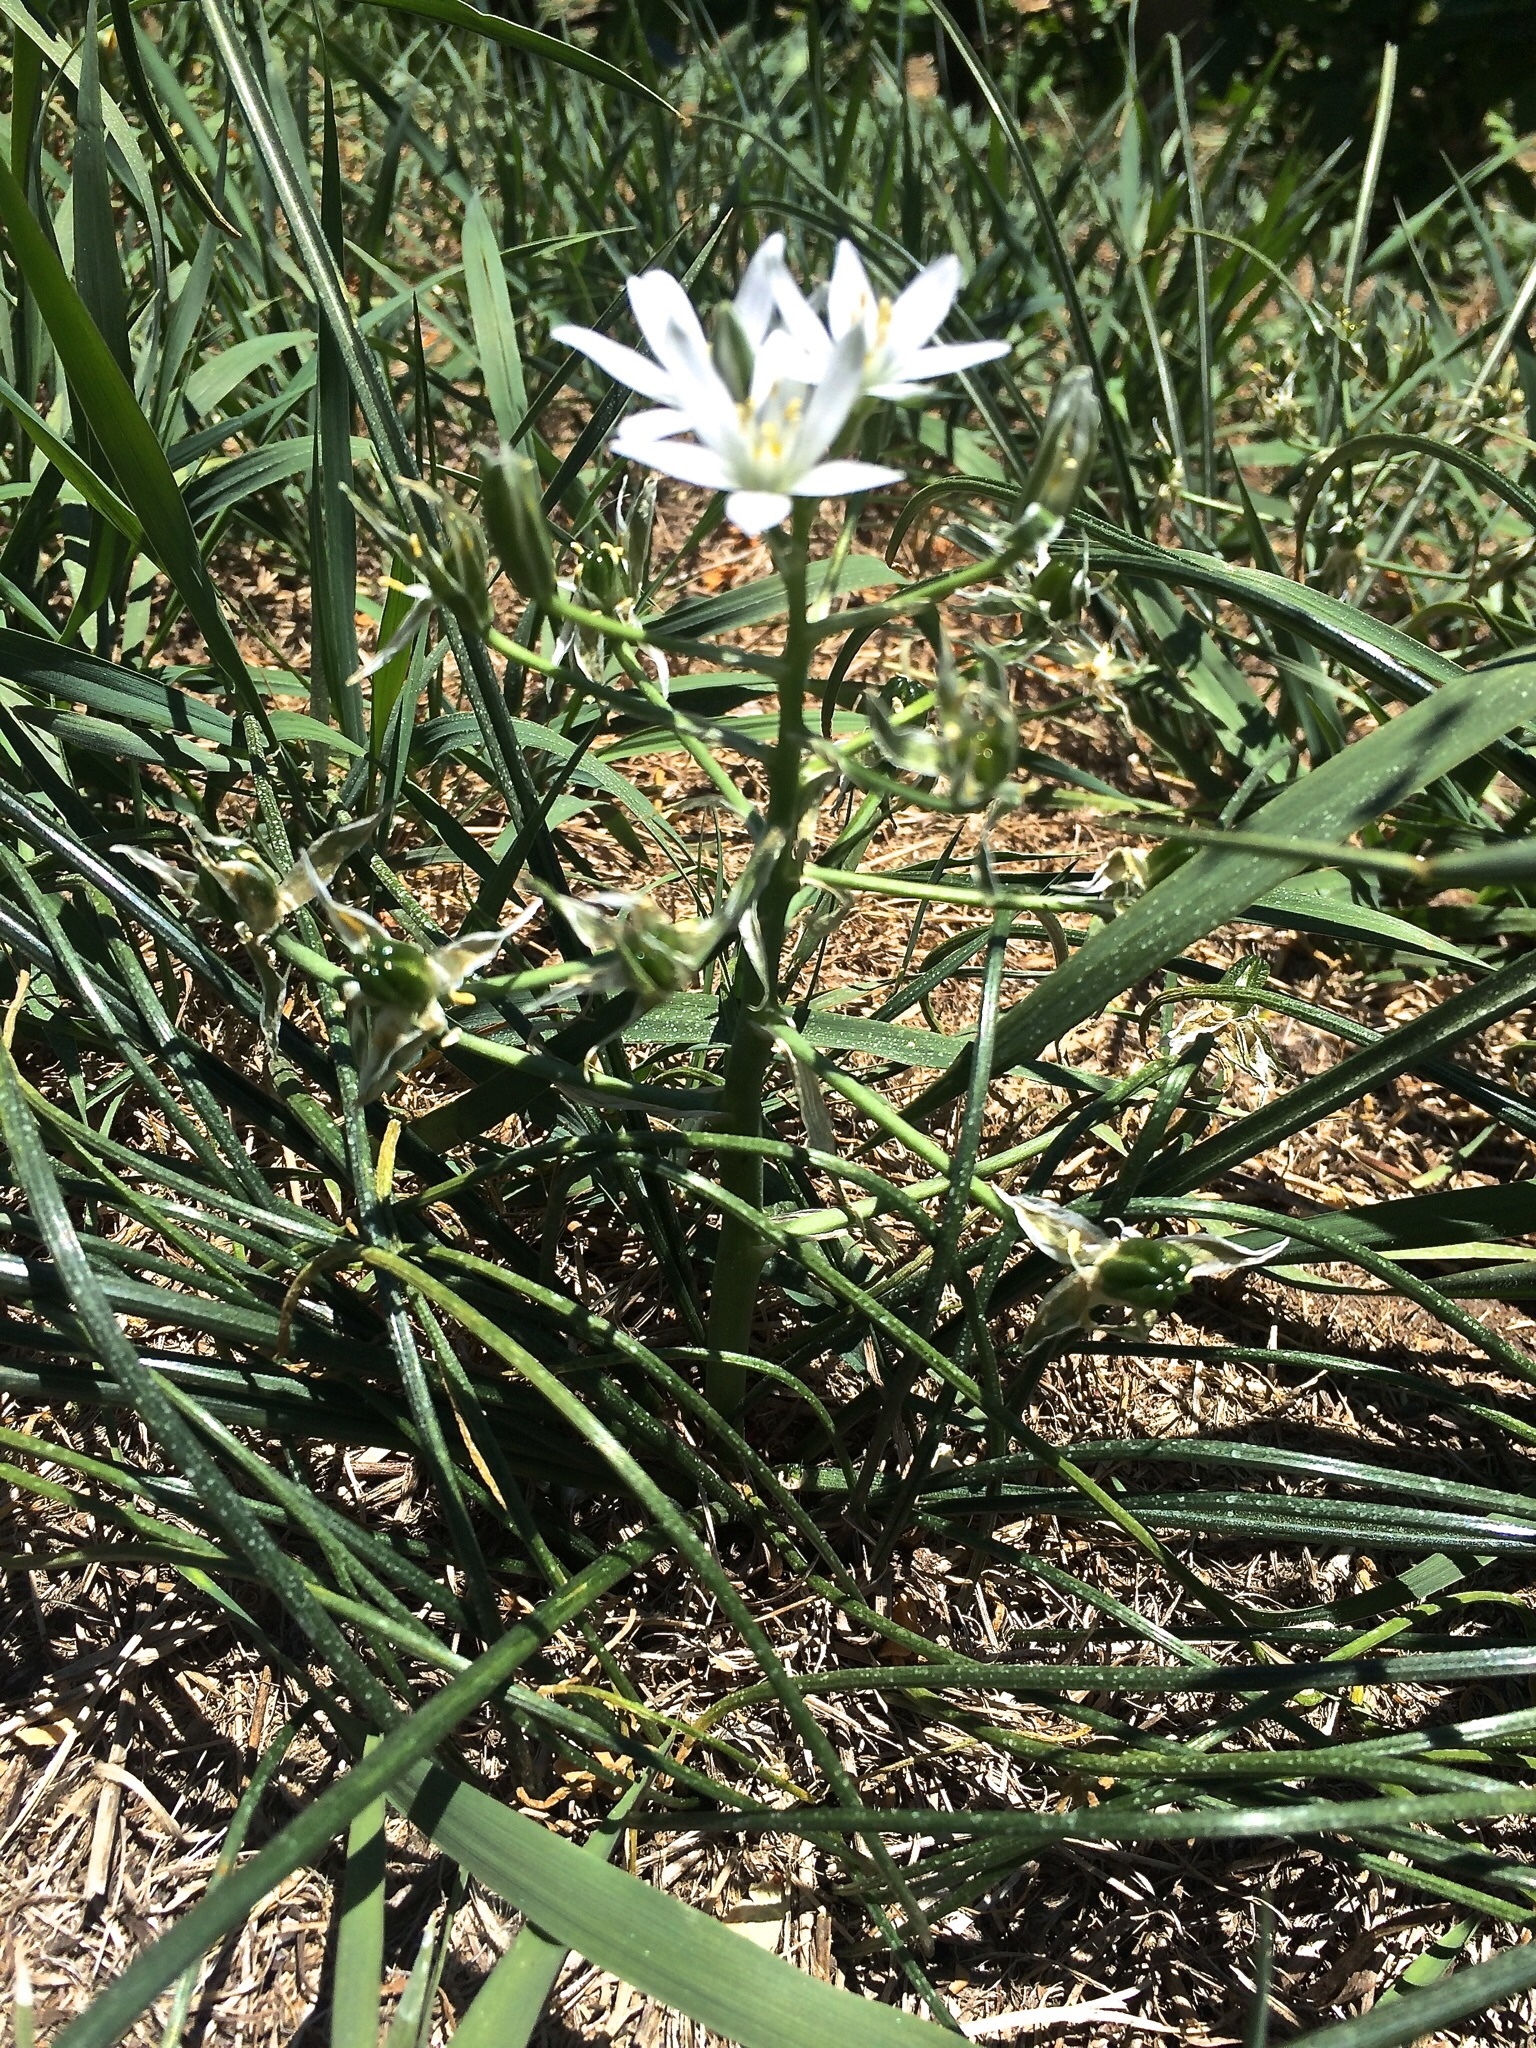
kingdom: Plantae
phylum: Tracheophyta
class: Liliopsida
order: Asparagales
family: Asparagaceae
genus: Ornithogalum
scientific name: Ornithogalum umbellatum
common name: Garden star-of-bethlehem
